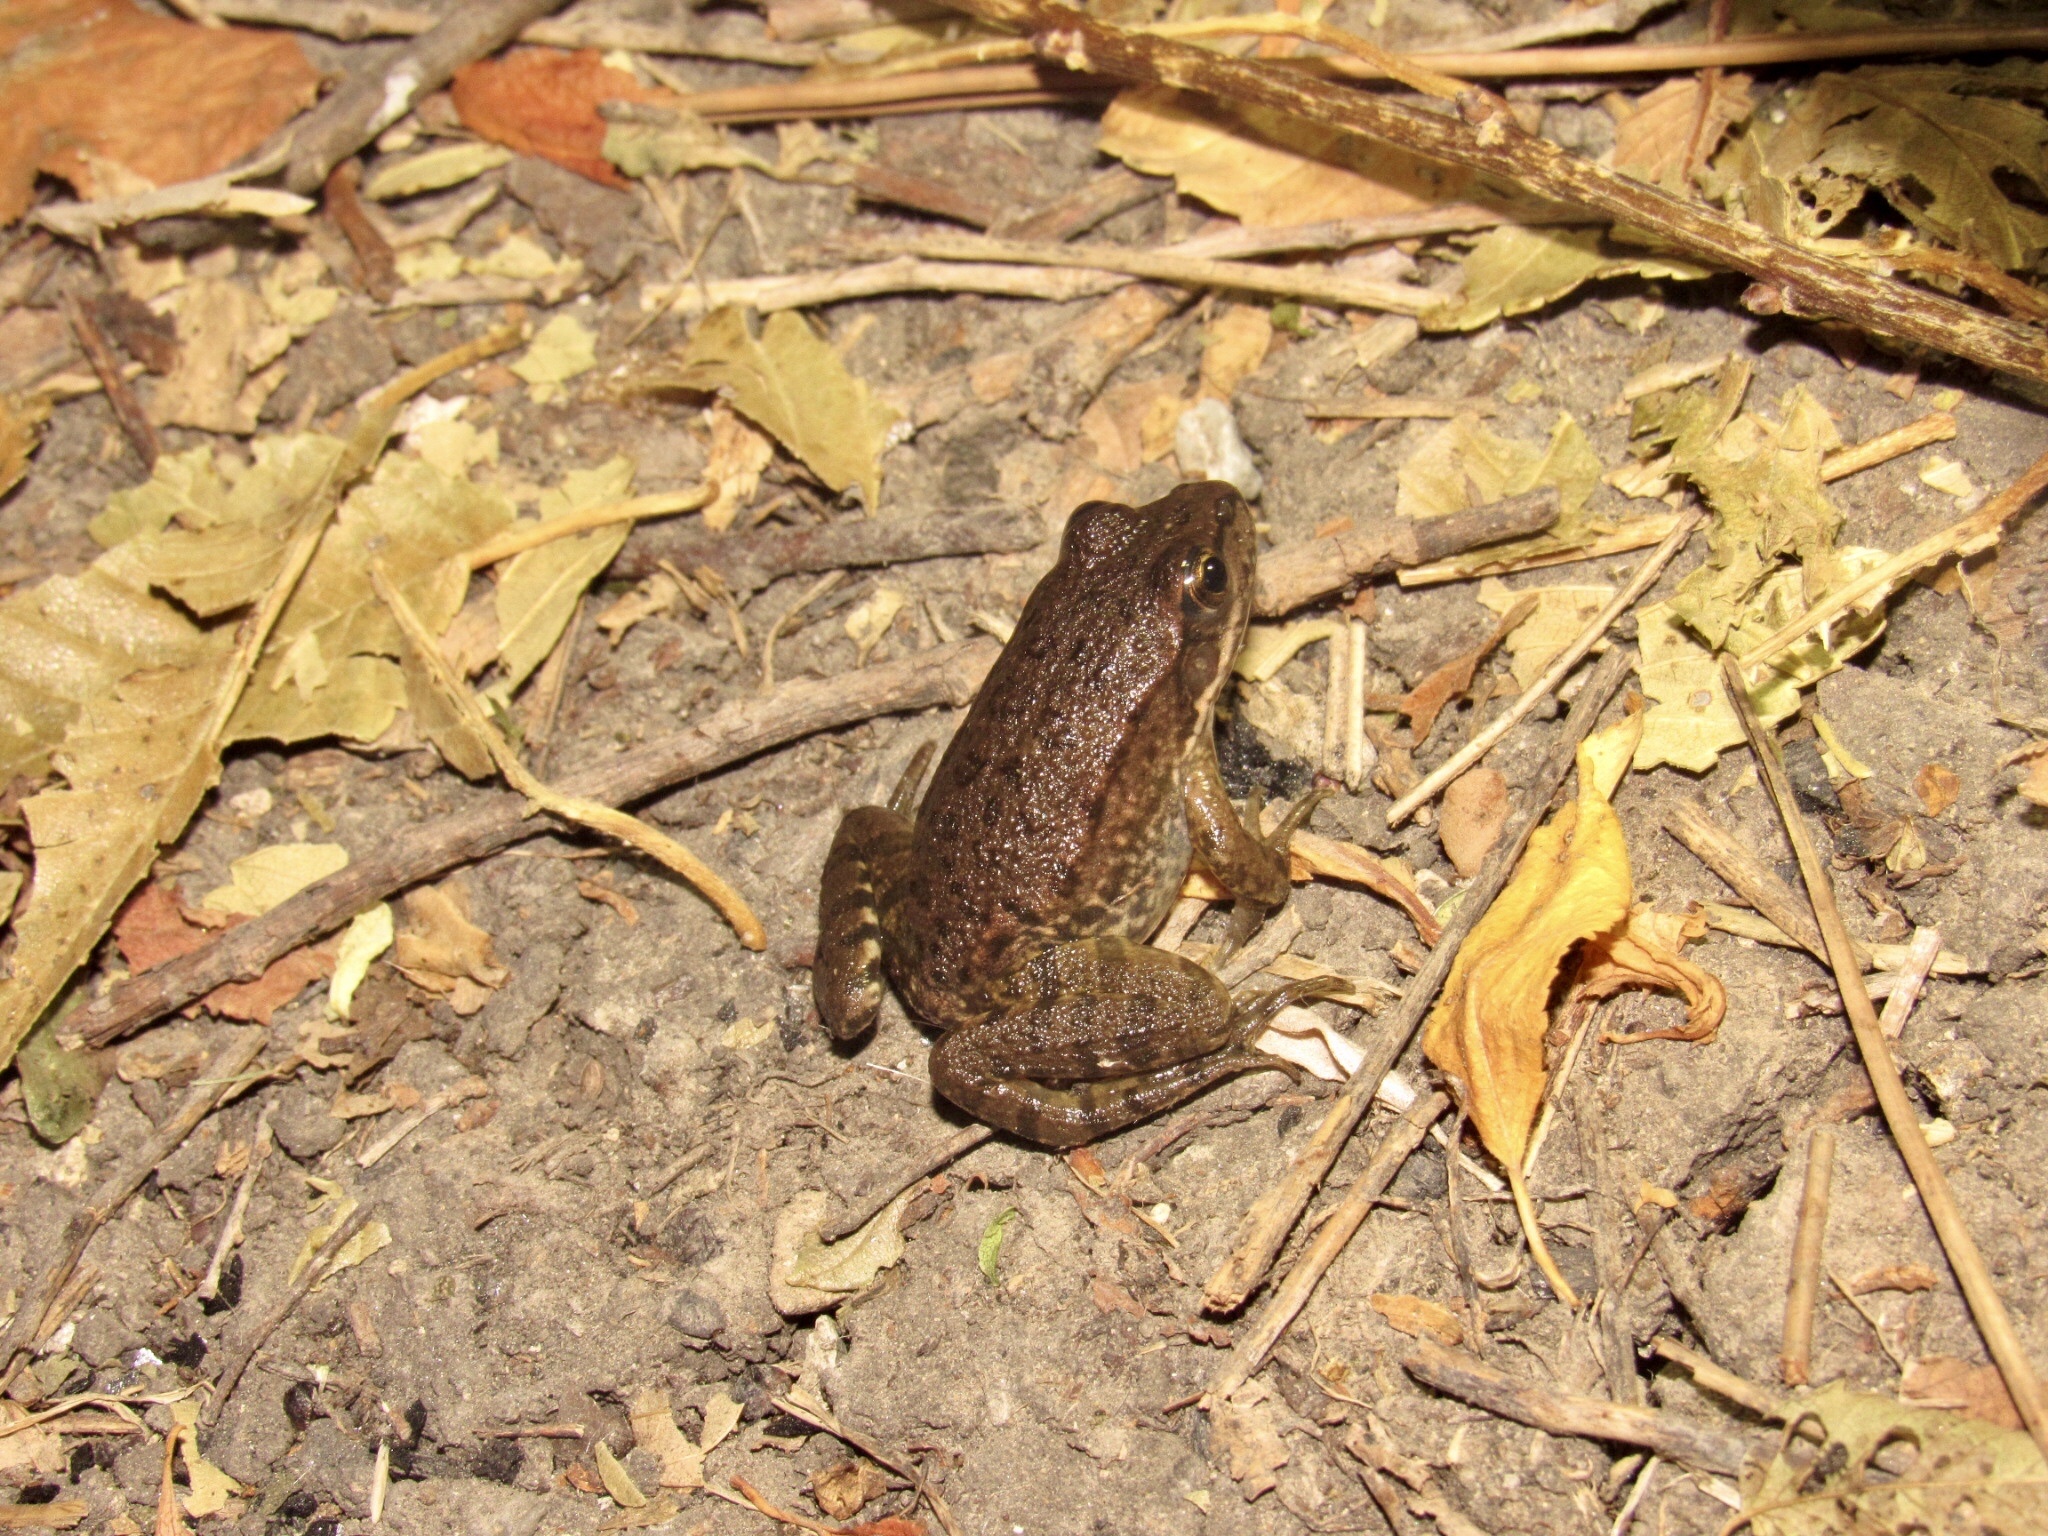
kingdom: Animalia
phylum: Chordata
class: Amphibia
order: Anura
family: Ranidae
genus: Pelophylax
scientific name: Pelophylax ridibundus
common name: Marsh frog
